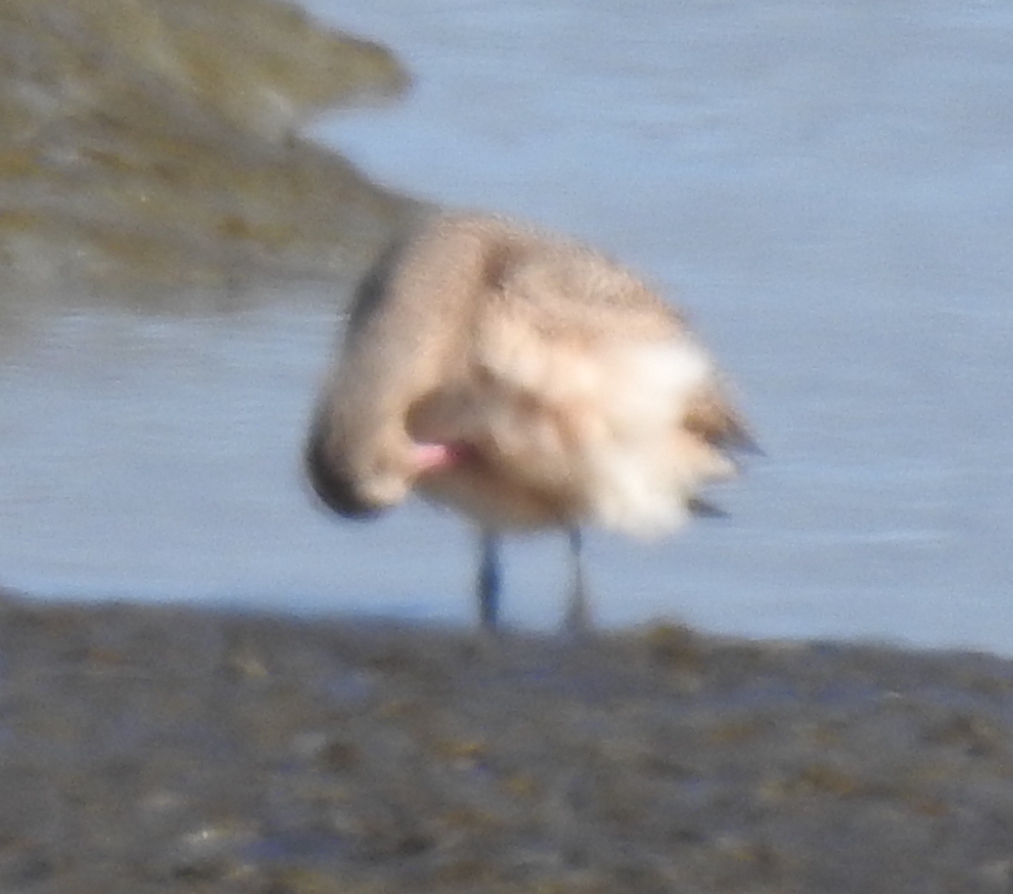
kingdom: Animalia
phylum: Chordata
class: Aves
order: Charadriiformes
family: Scolopacidae
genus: Limosa
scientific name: Limosa fedoa
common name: Marbled godwit
